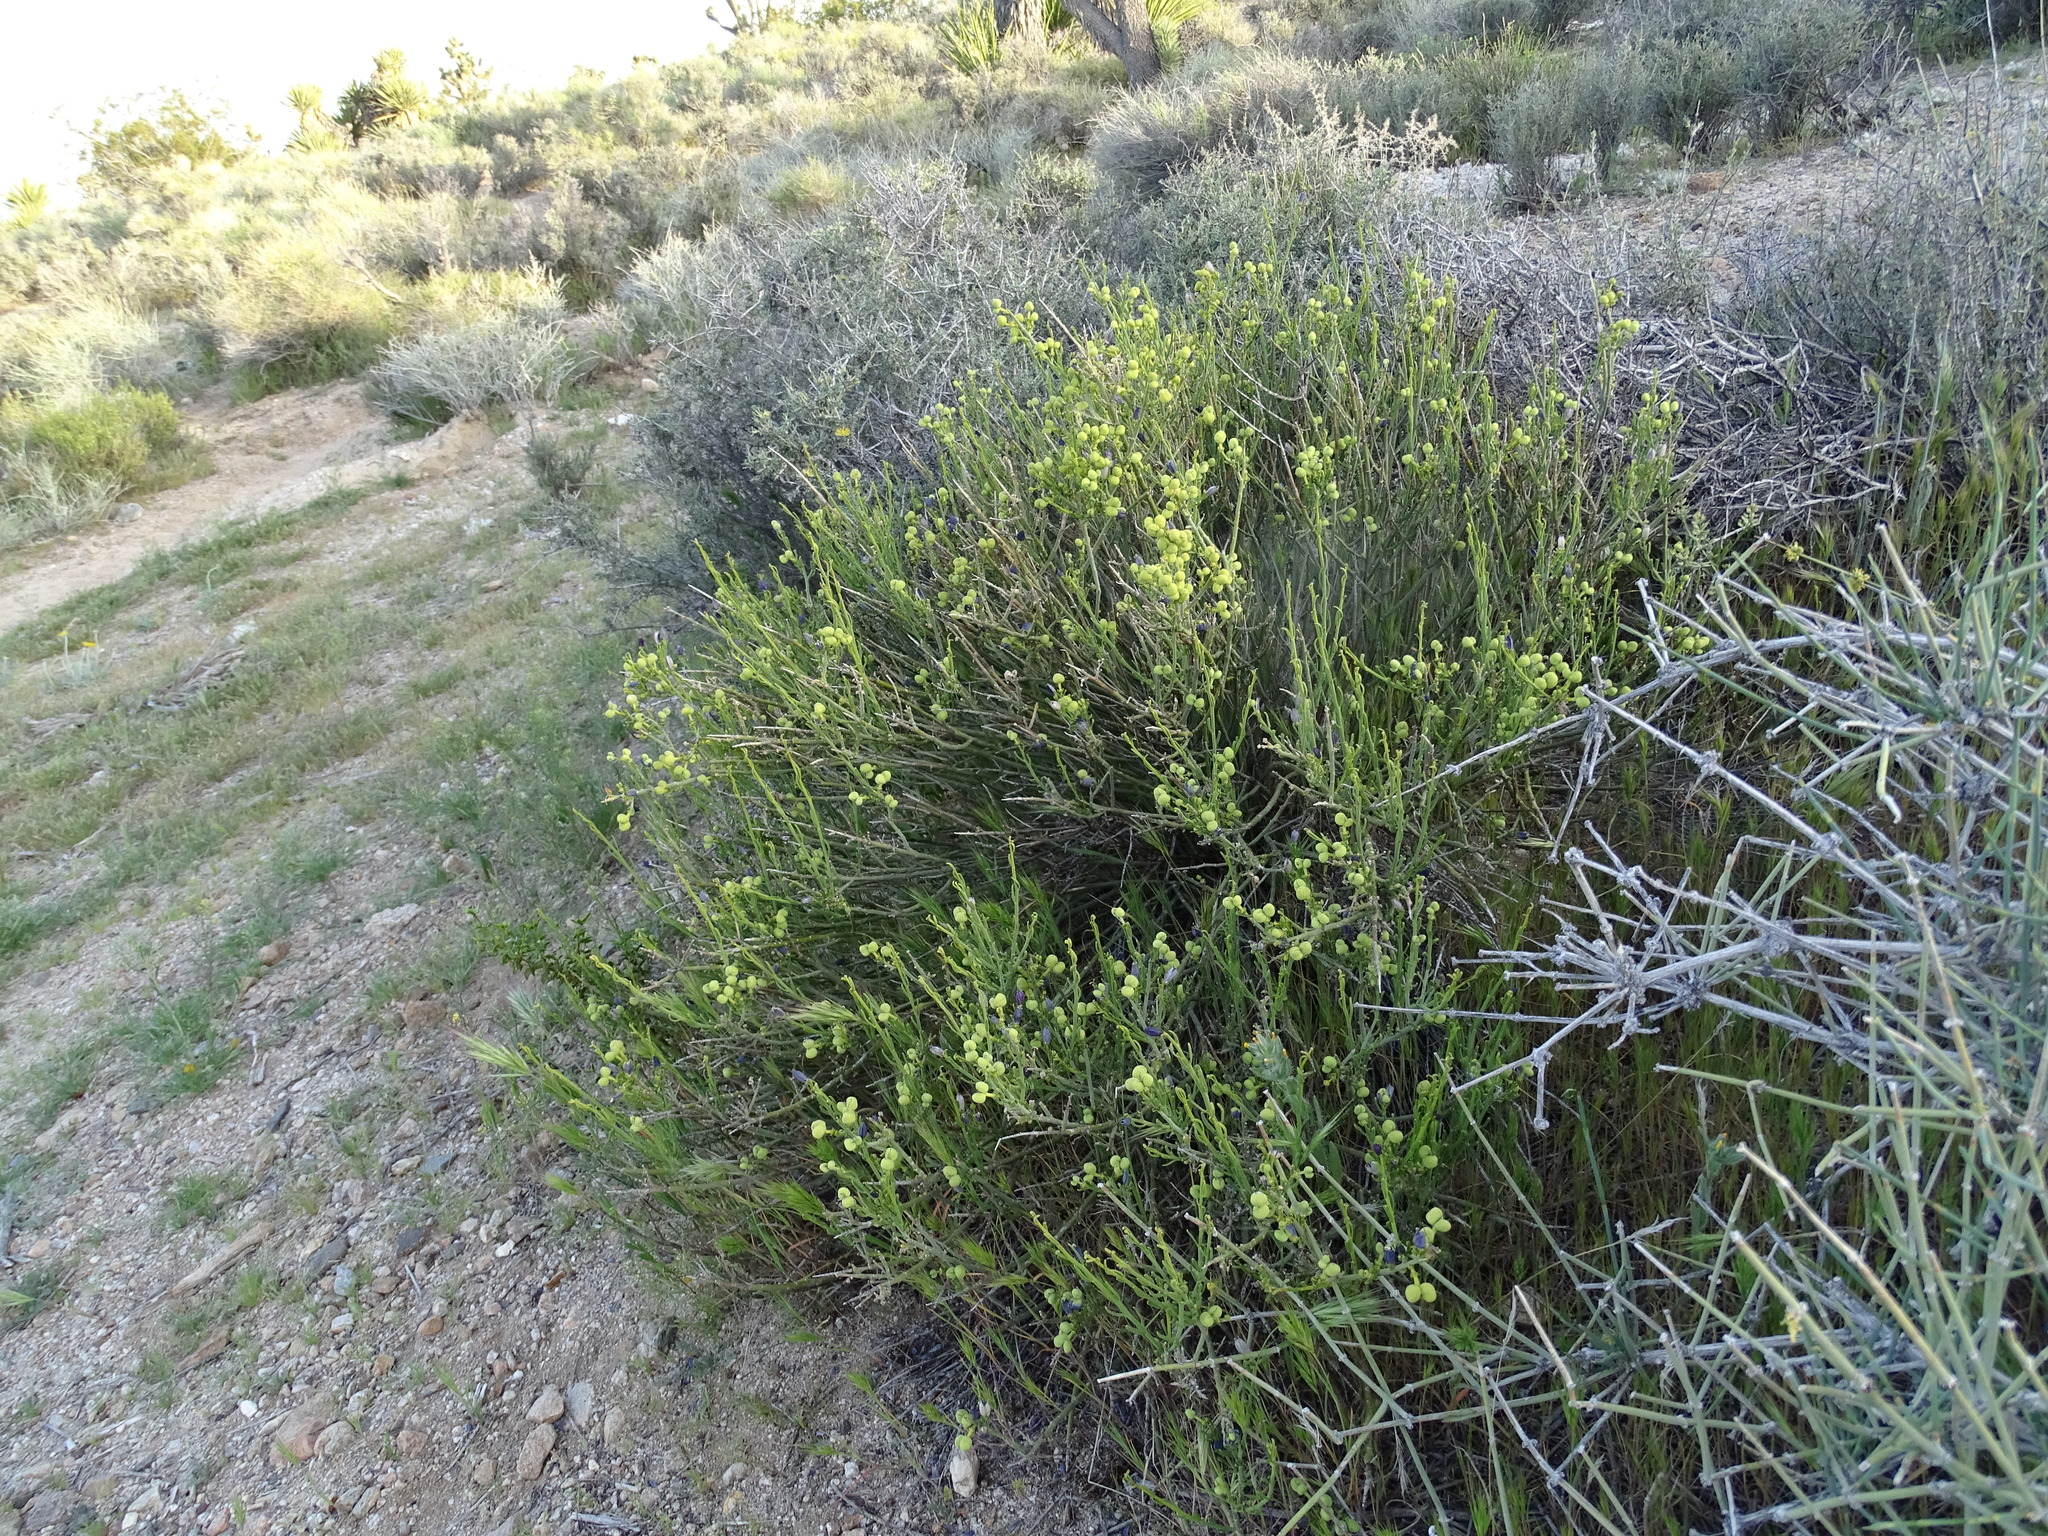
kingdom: Plantae
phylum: Tracheophyta
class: Magnoliopsida
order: Sapindales
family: Rutaceae
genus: Thamnosma
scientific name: Thamnosma montana
